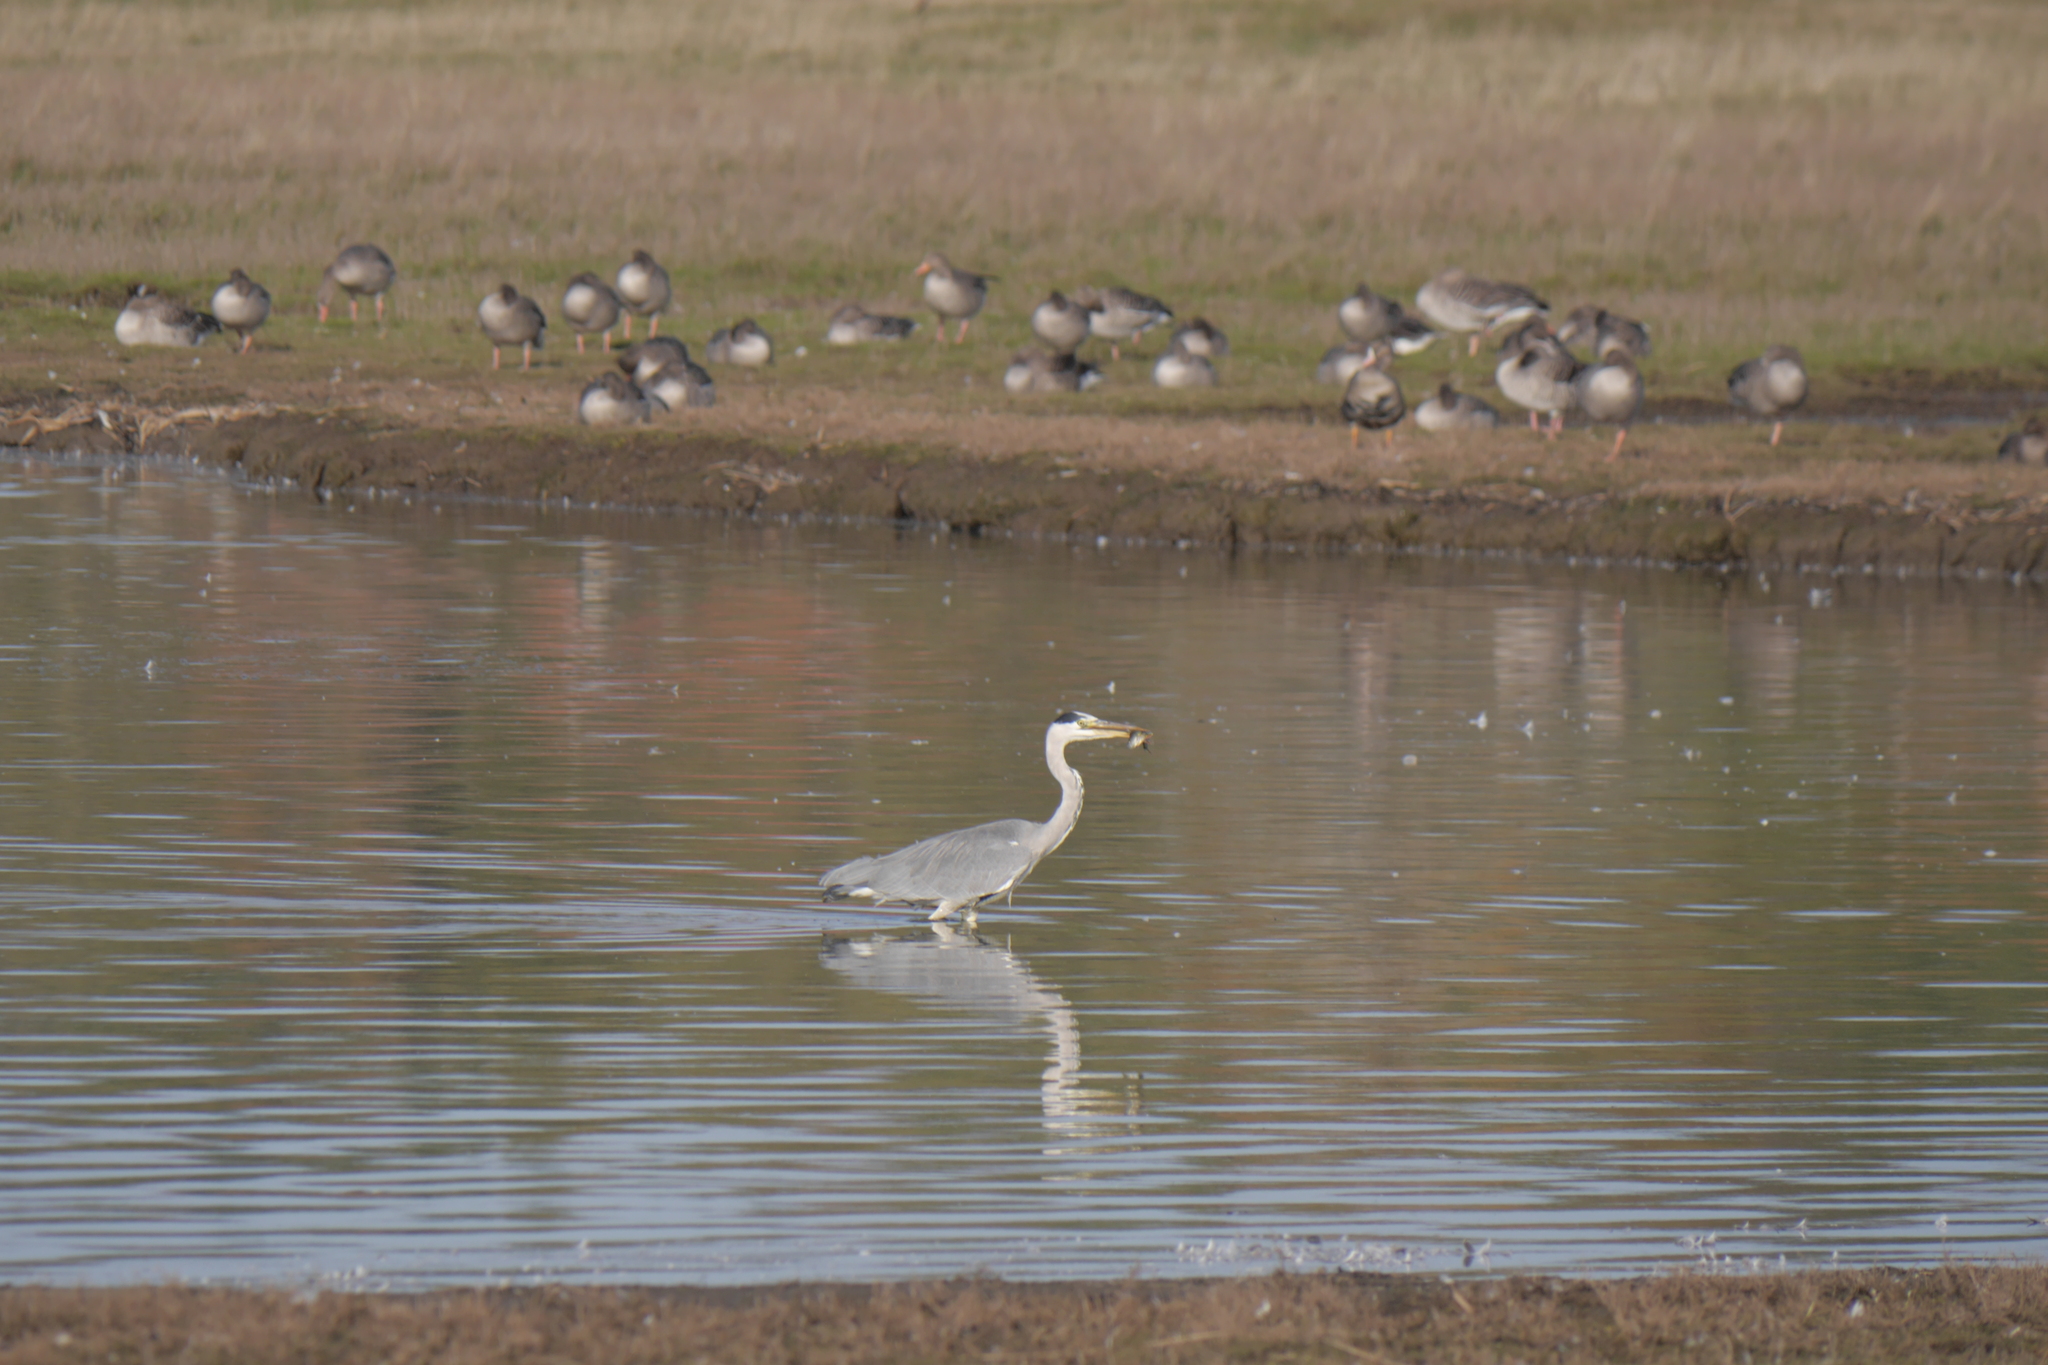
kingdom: Animalia
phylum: Chordata
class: Aves
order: Pelecaniformes
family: Ardeidae
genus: Ardea
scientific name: Ardea cinerea
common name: Grey heron
